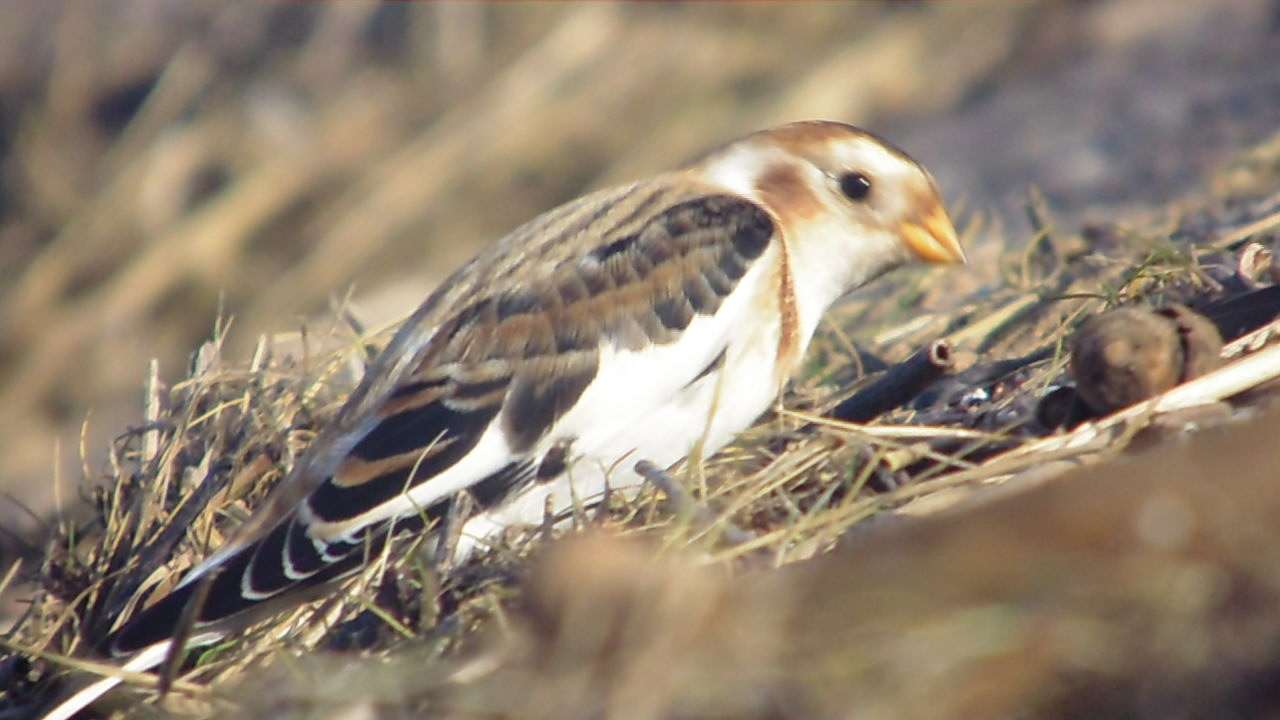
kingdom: Animalia
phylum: Chordata
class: Aves
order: Passeriformes
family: Calcariidae
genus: Plectrophenax
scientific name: Plectrophenax nivalis
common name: Snow bunting
